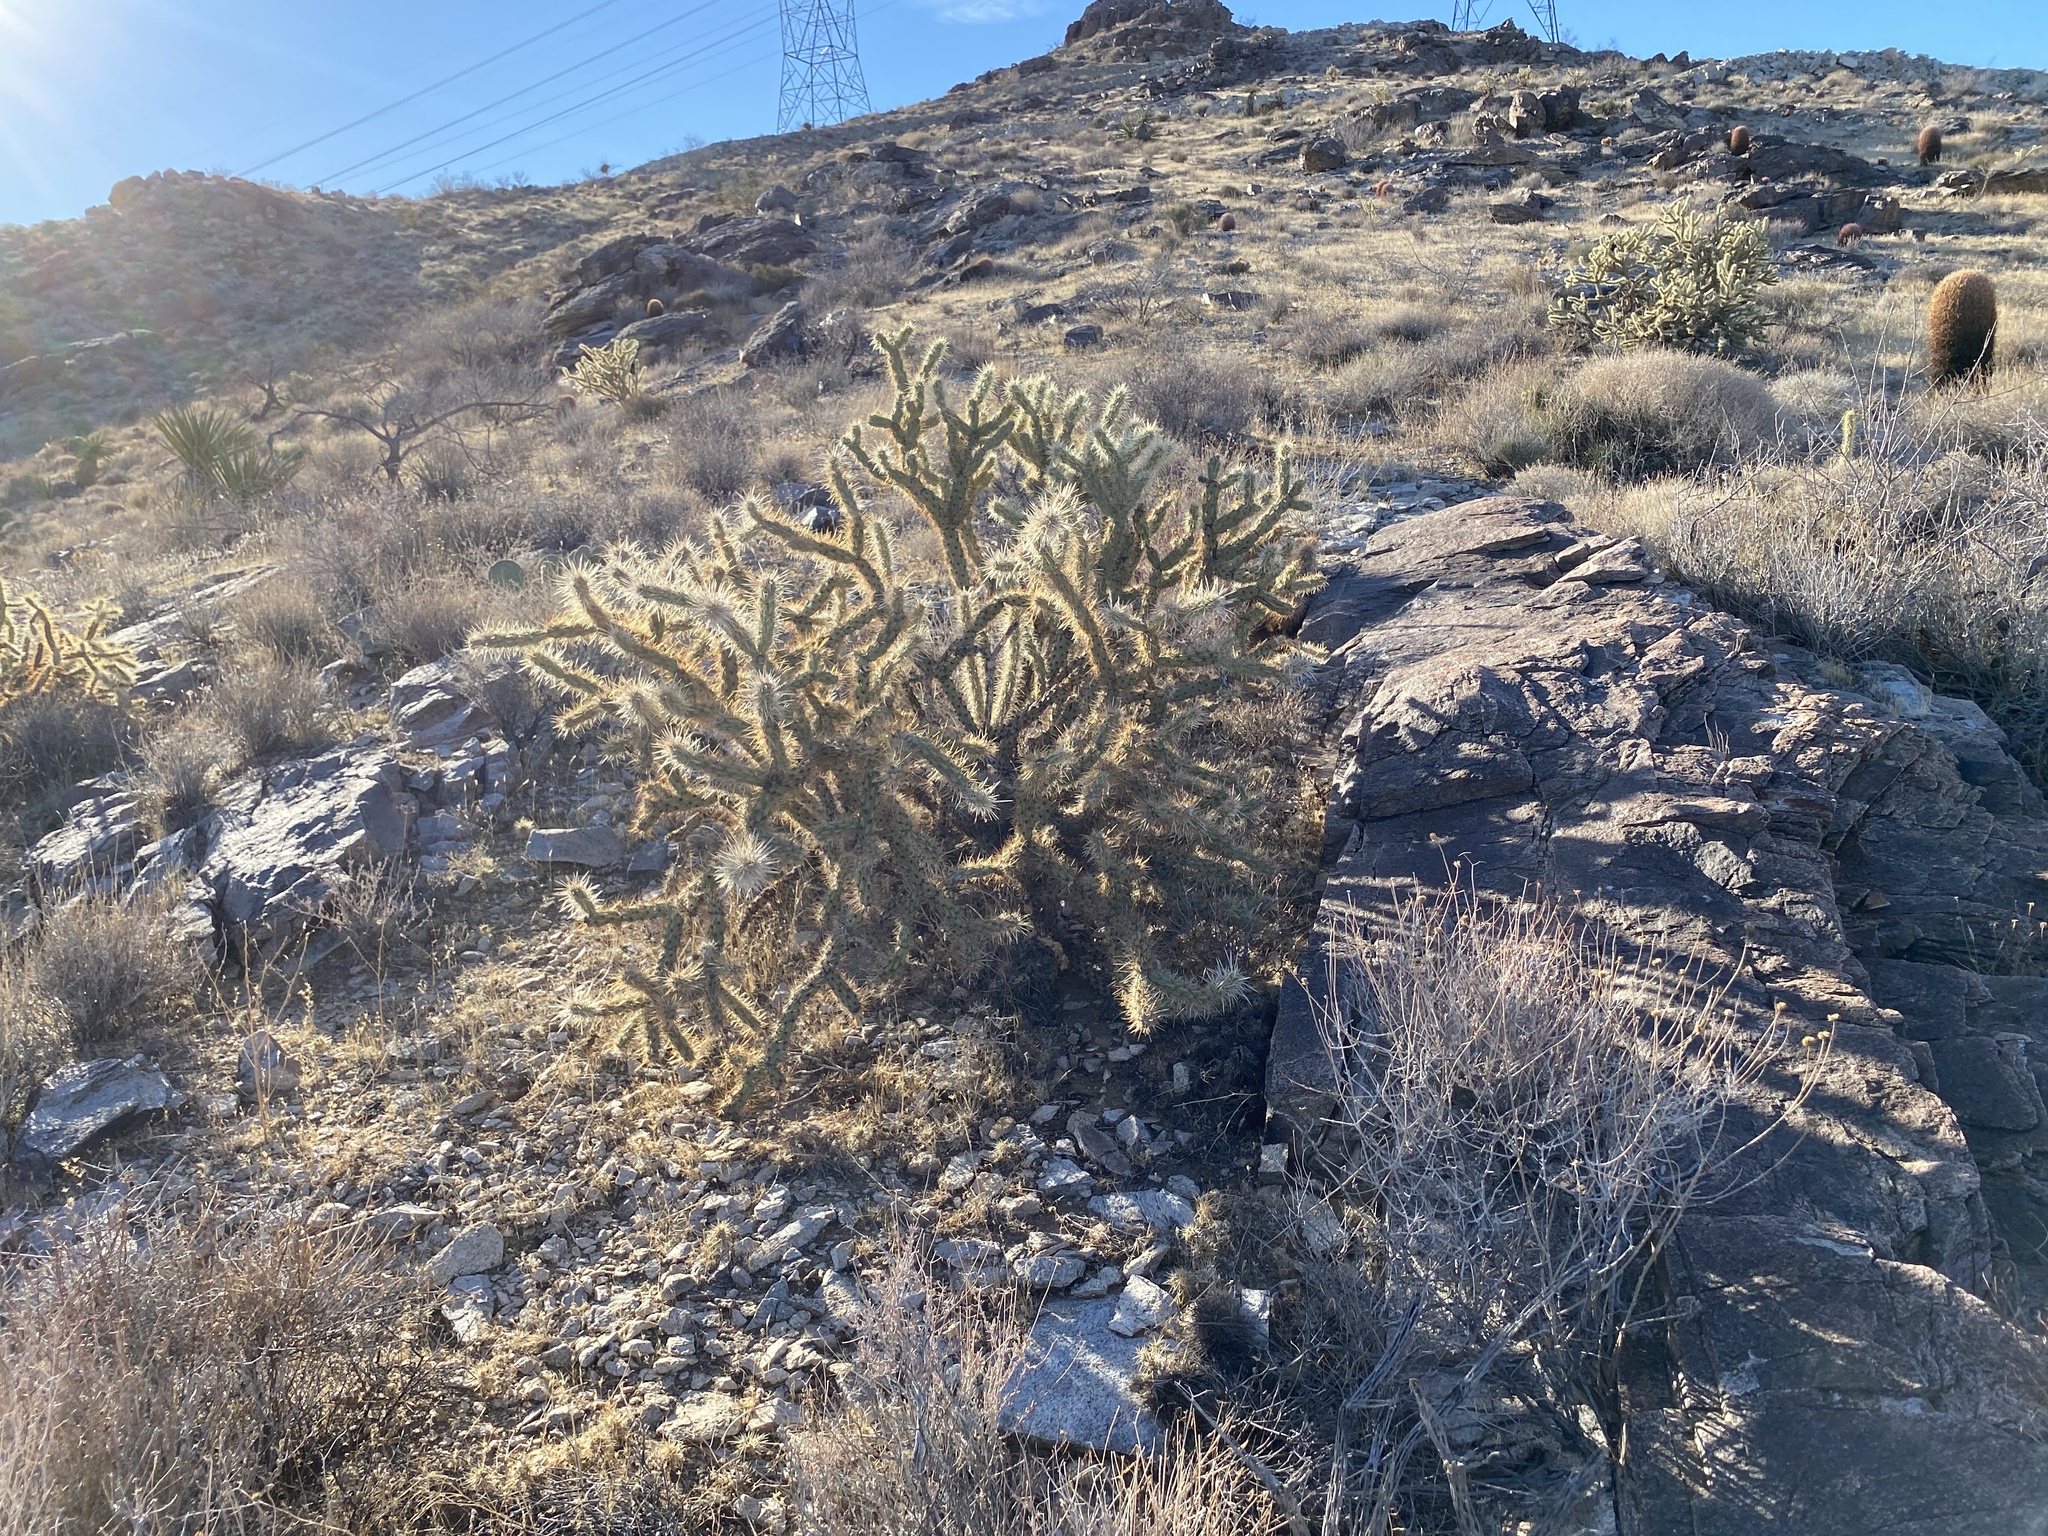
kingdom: Plantae
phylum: Tracheophyta
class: Magnoliopsida
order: Caryophyllales
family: Cactaceae
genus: Cylindropuntia
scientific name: Cylindropuntia acanthocarpa
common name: Buckhorn cholla
